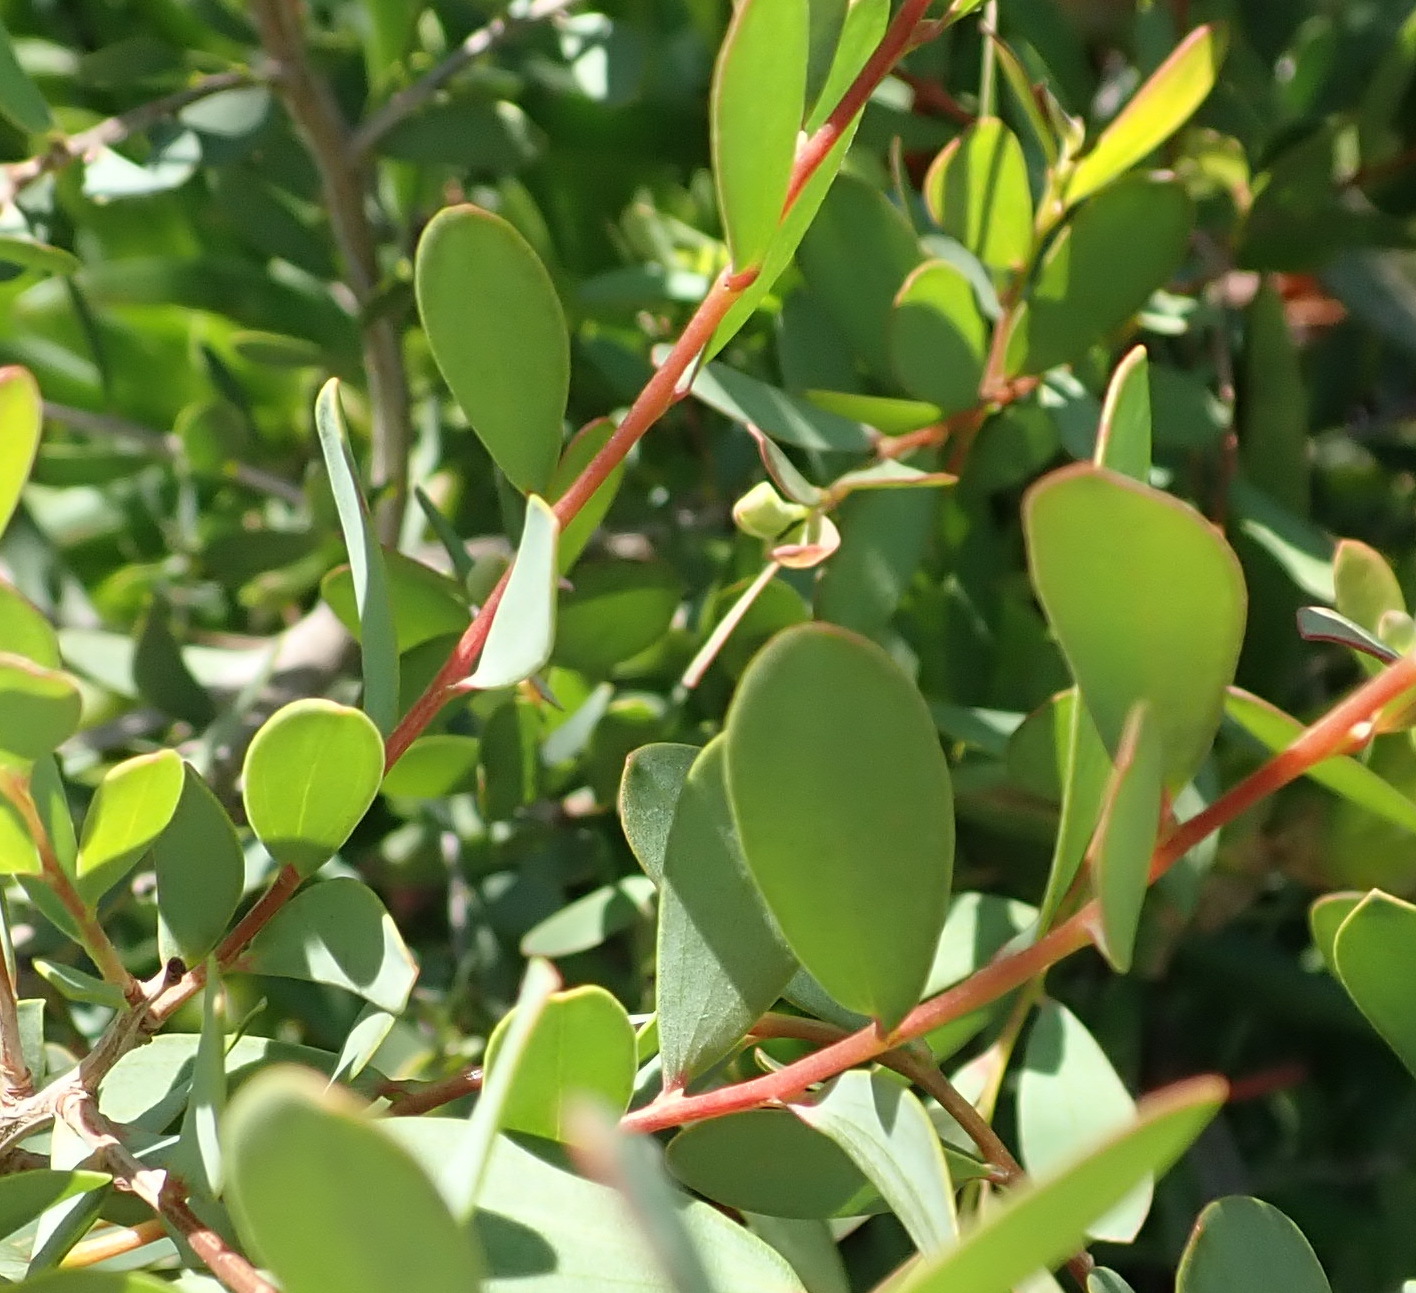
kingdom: Plantae
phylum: Tracheophyta
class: Magnoliopsida
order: Myrtales
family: Myrtaceae
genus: Leptospermum
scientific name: Leptospermum laevigatum
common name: Australian teatree
